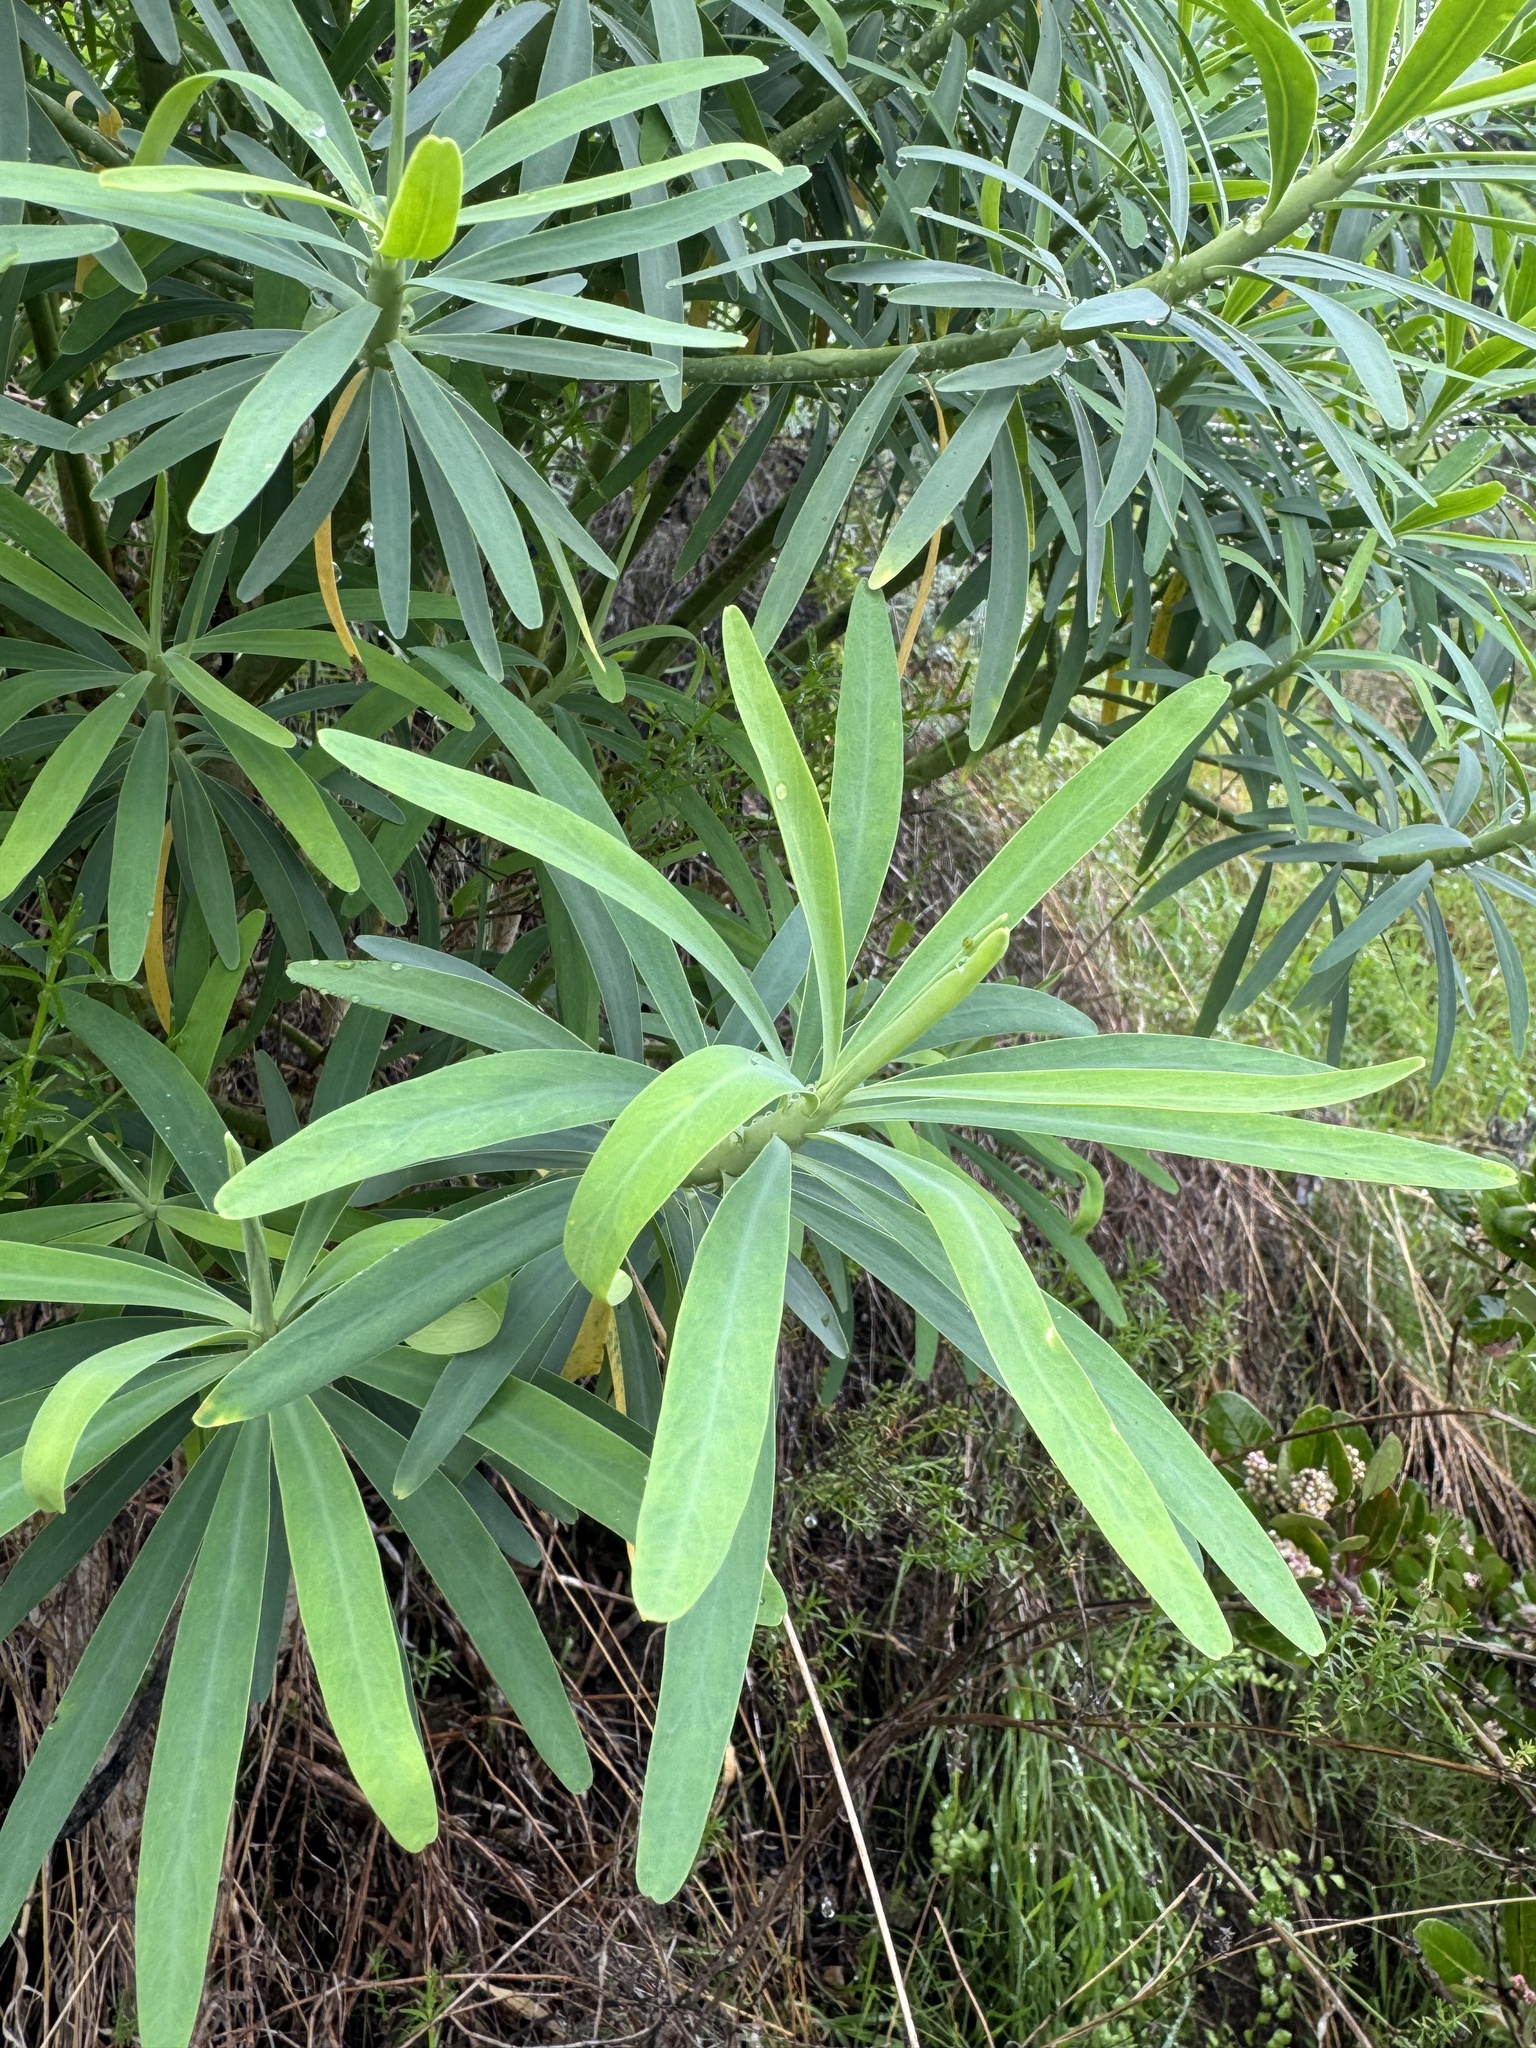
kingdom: Plantae
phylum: Tracheophyta
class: Magnoliopsida
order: Malpighiales
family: Euphorbiaceae
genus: Euphorbia
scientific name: Euphorbia lamarckii
